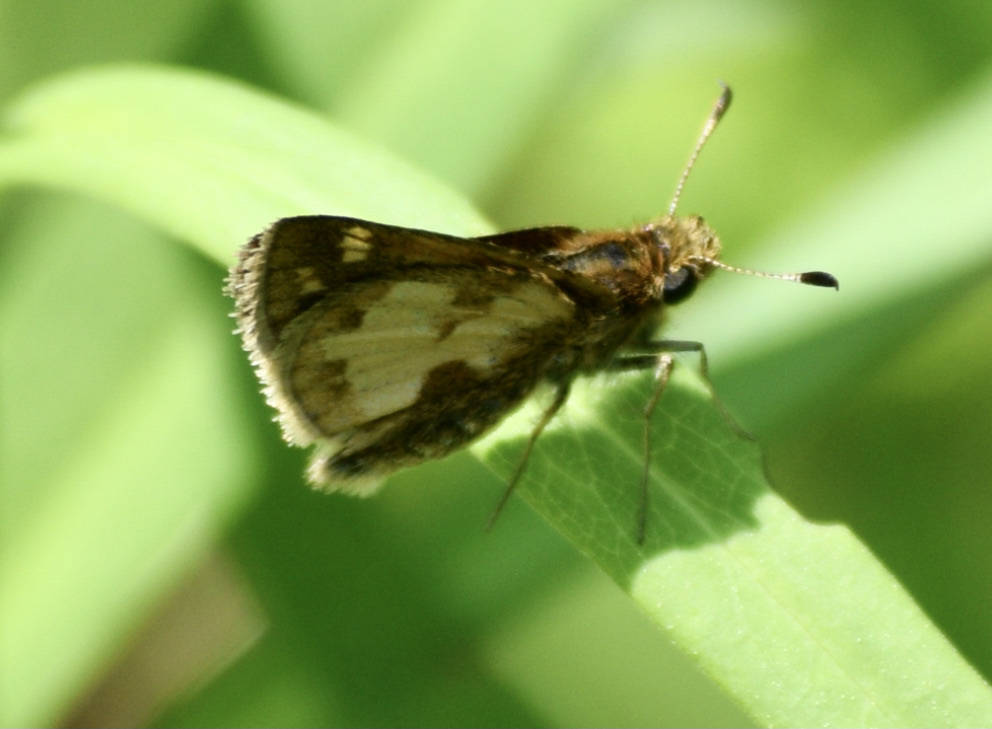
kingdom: Animalia
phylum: Arthropoda
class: Insecta
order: Lepidoptera
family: Hesperiidae
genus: Polites
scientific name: Polites coras
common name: Peck's skipper
